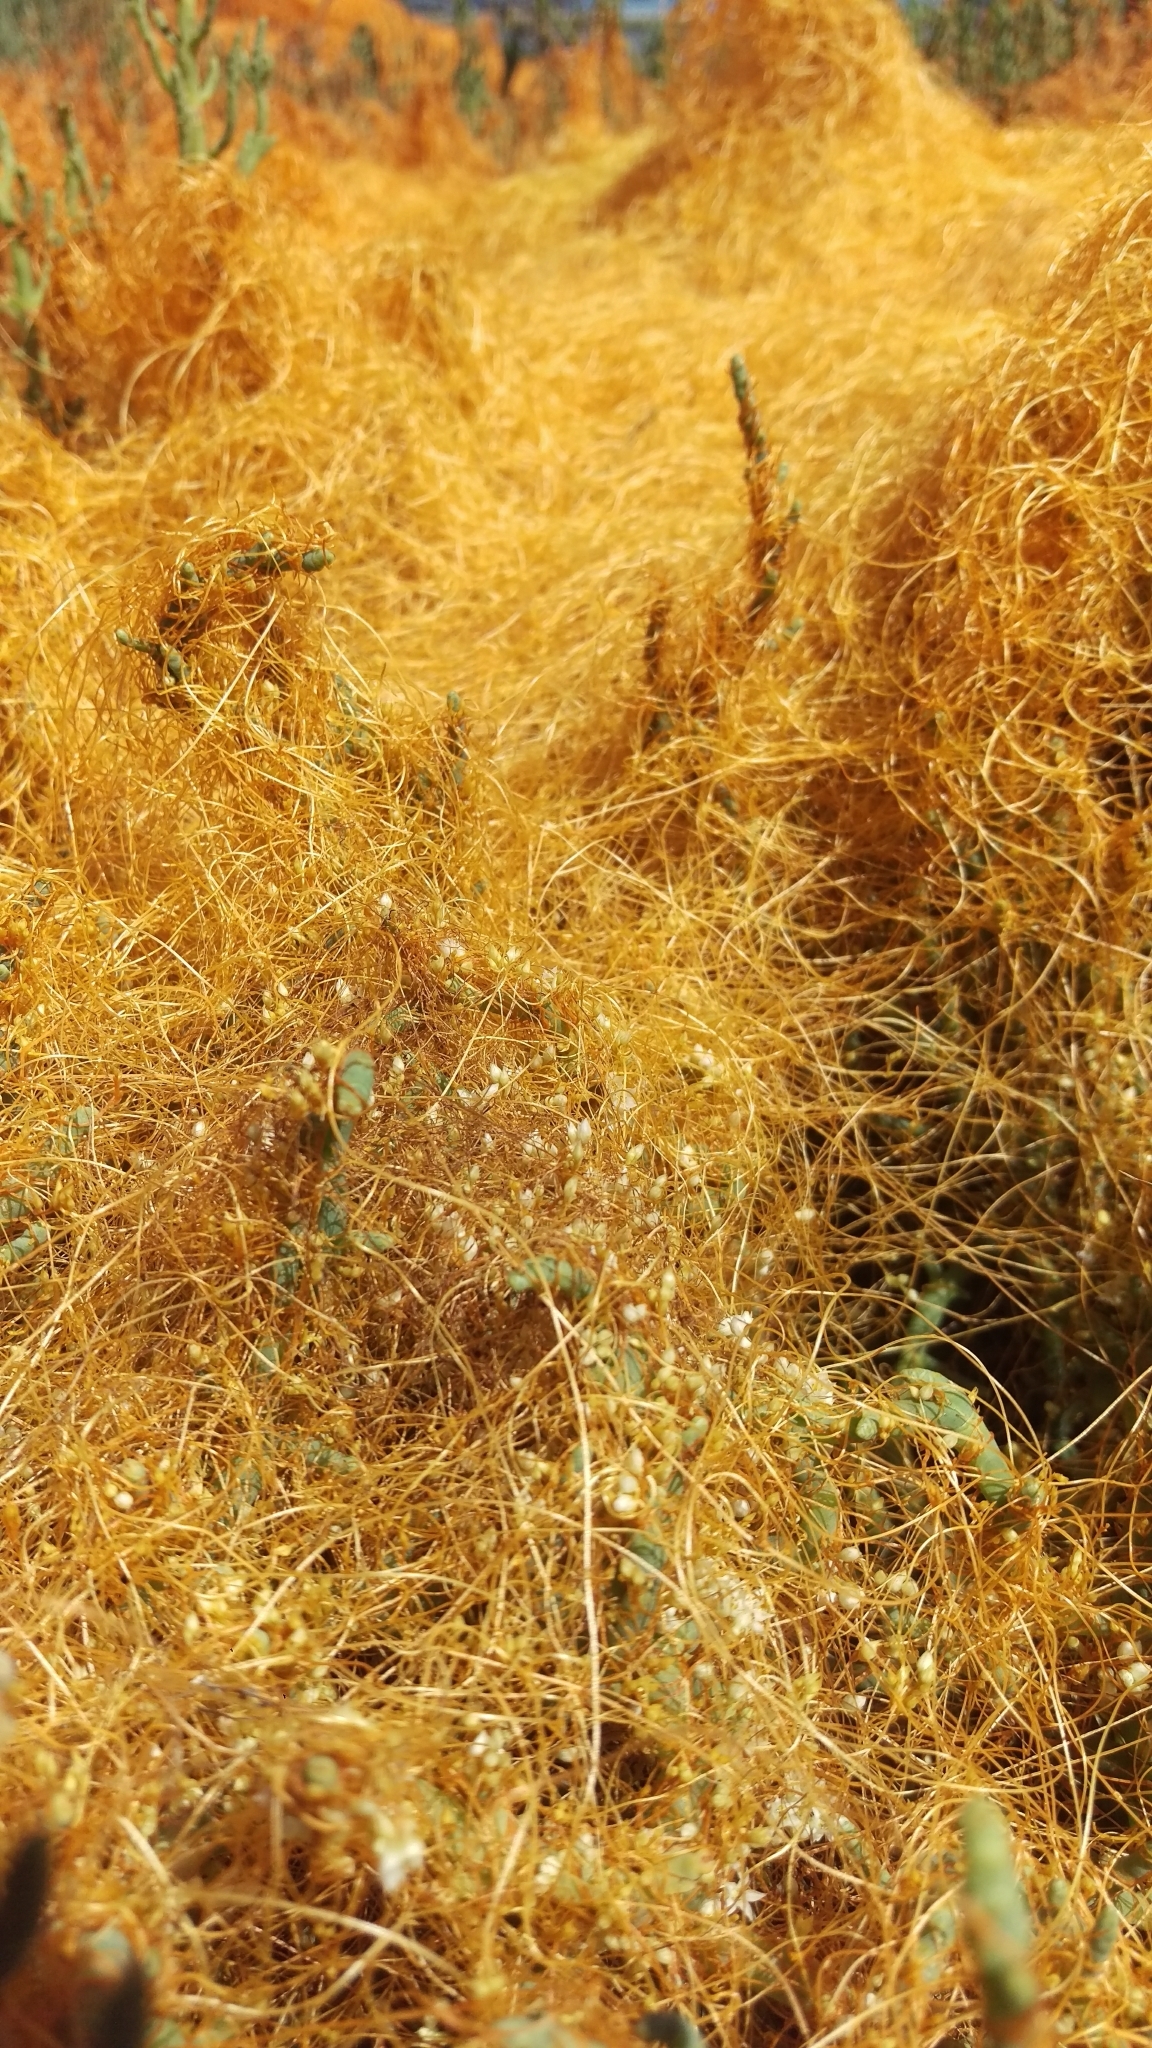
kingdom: Plantae
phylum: Tracheophyta
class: Magnoliopsida
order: Solanales
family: Convolvulaceae
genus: Cuscuta
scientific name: Cuscuta pacifica
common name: Large saltmarsh dodder
